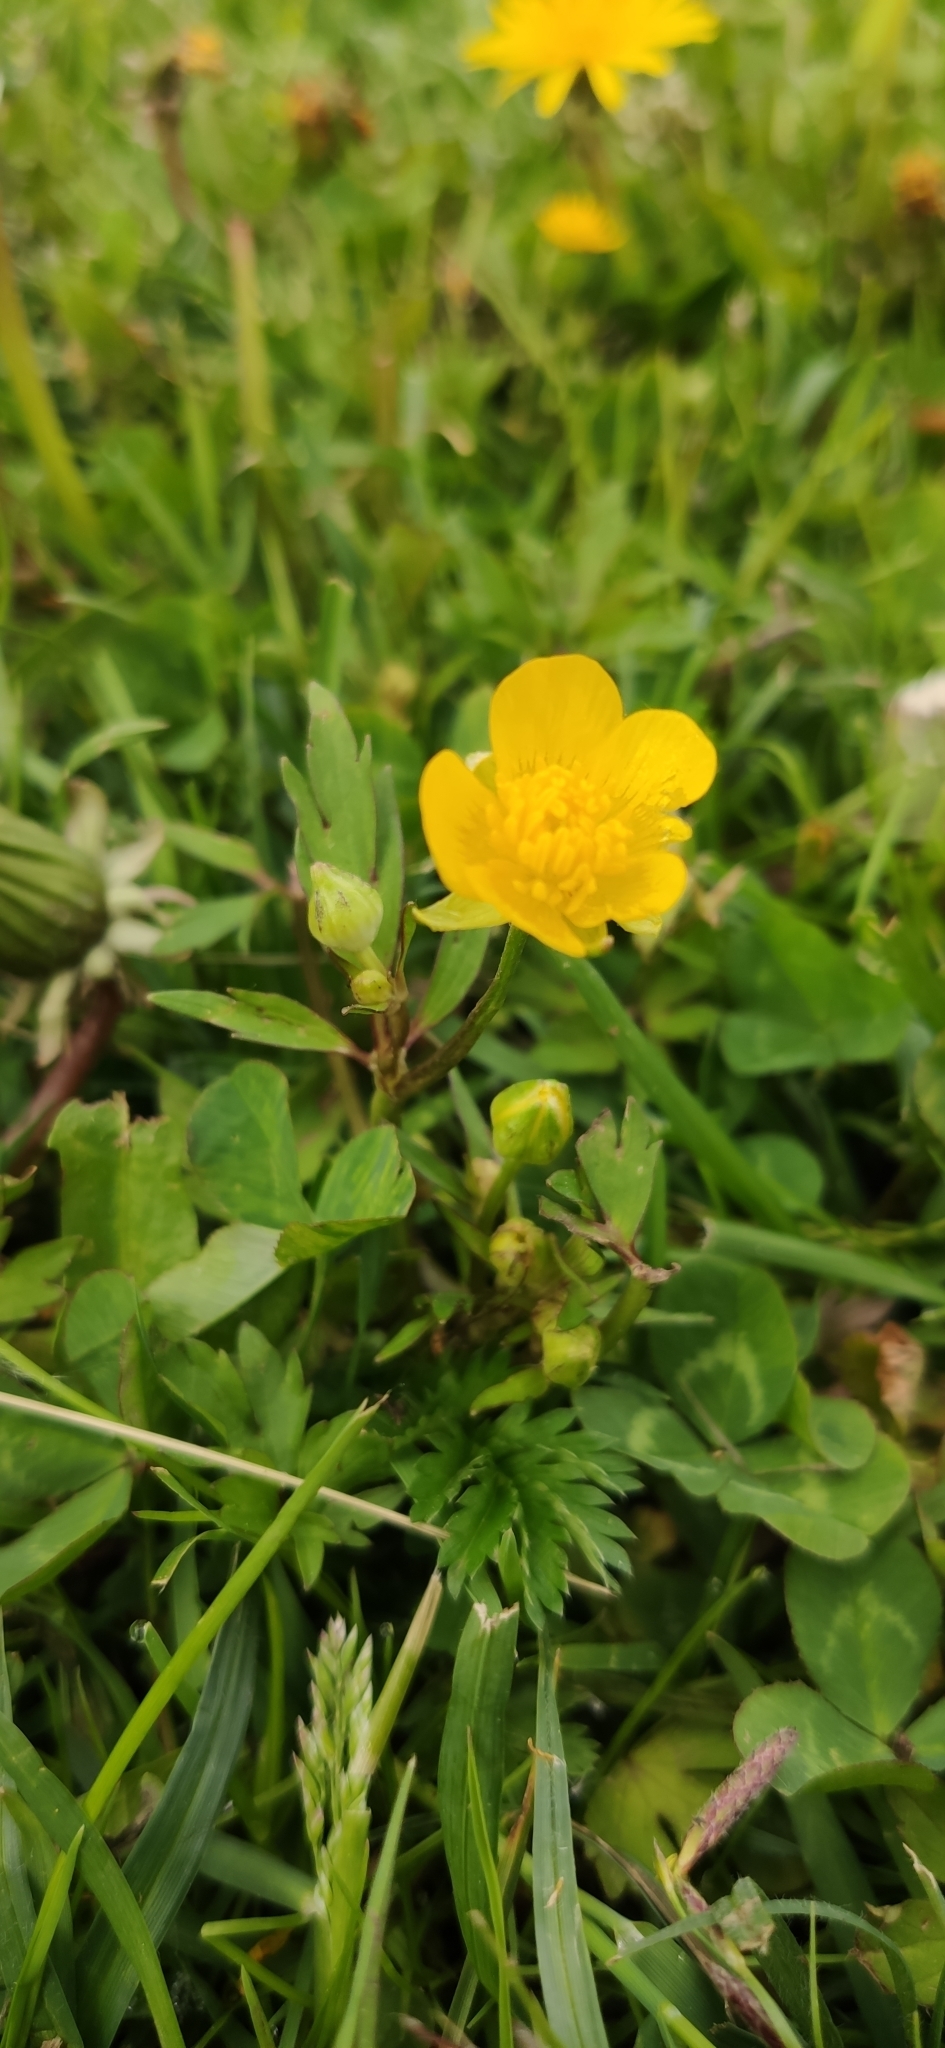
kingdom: Plantae
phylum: Tracheophyta
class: Magnoliopsida
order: Ranunculales
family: Ranunculaceae
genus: Ranunculus
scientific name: Ranunculus repens
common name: Creeping buttercup
